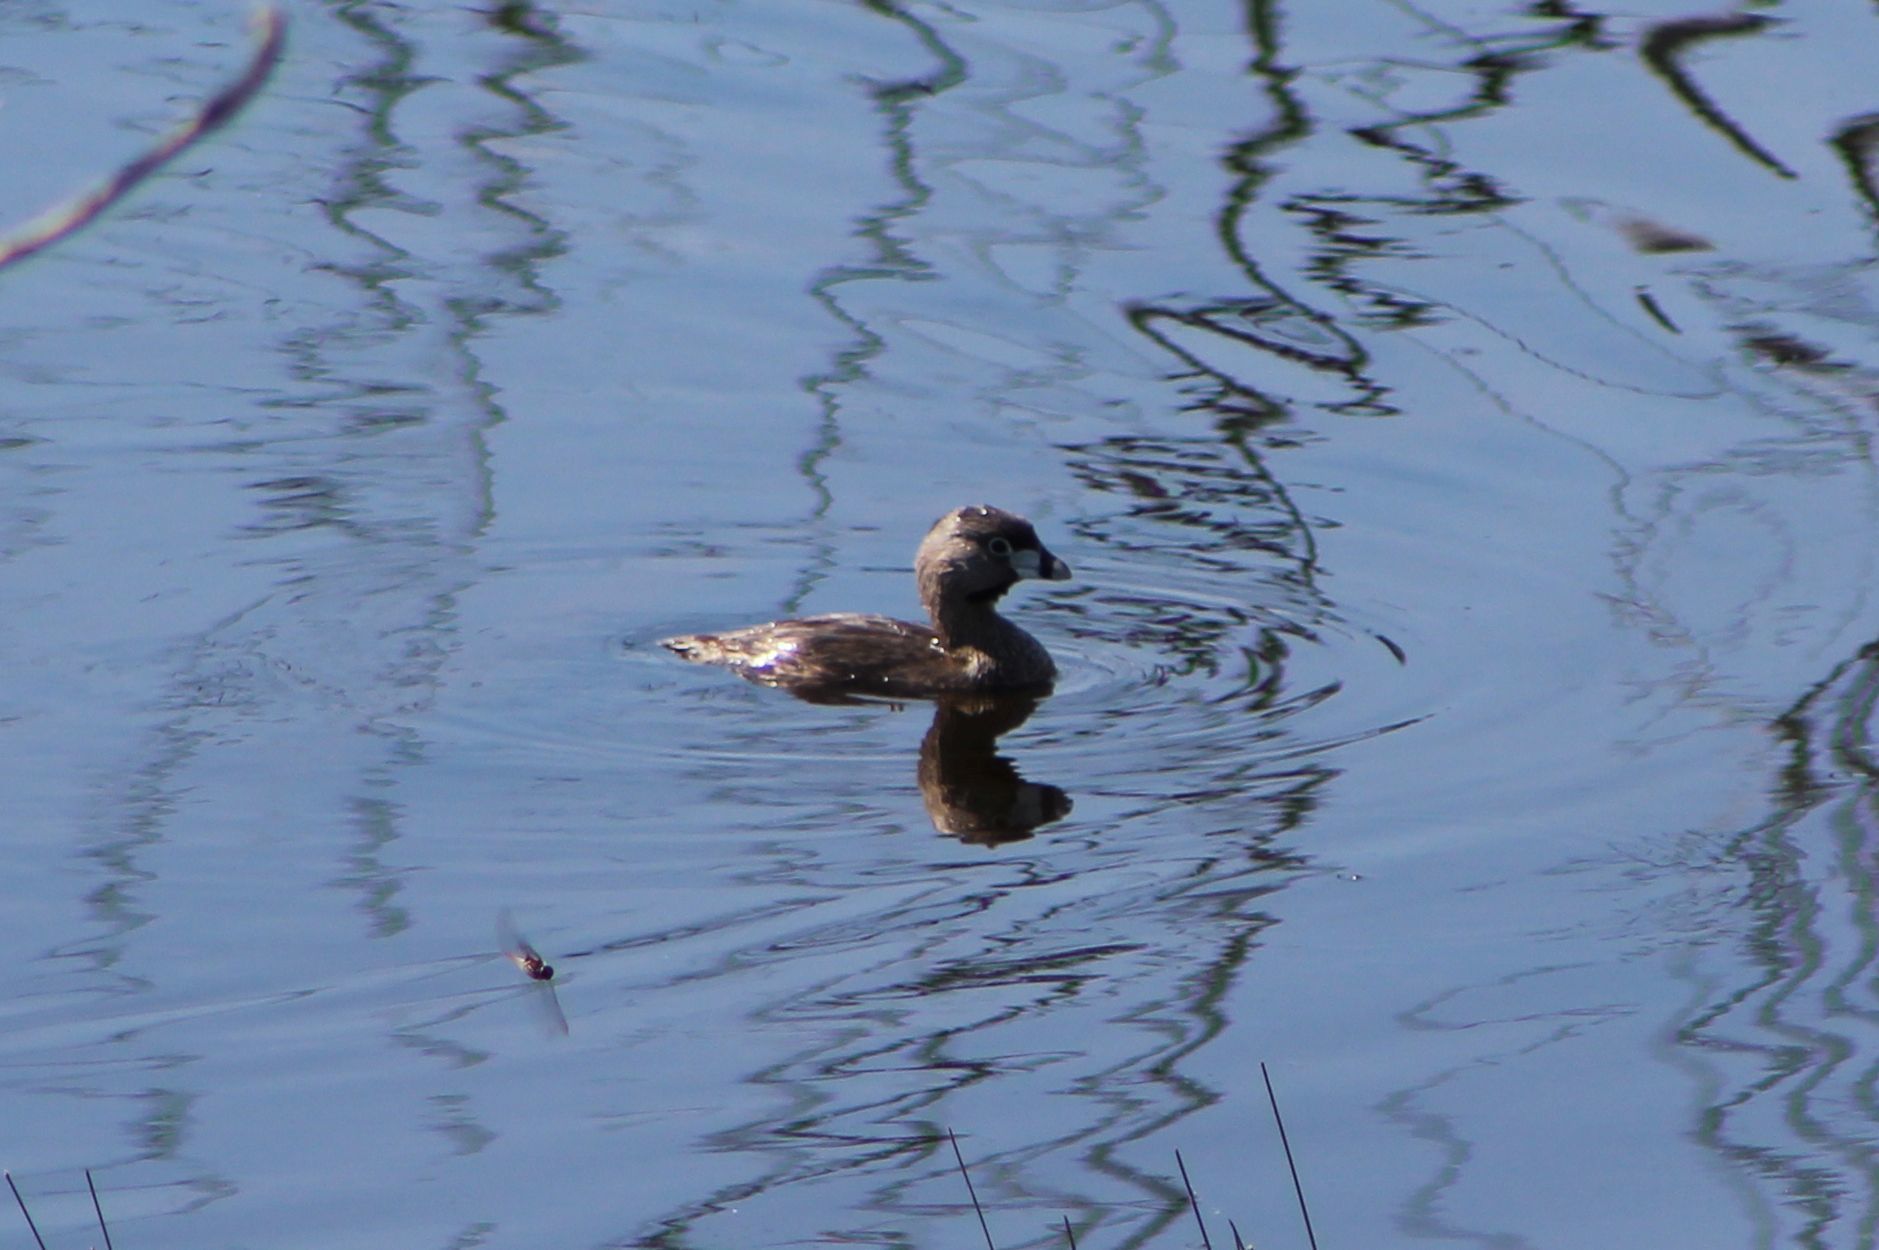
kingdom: Animalia
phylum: Chordata
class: Aves
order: Podicipediformes
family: Podicipedidae
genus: Podilymbus
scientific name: Podilymbus podiceps
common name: Pied-billed grebe
